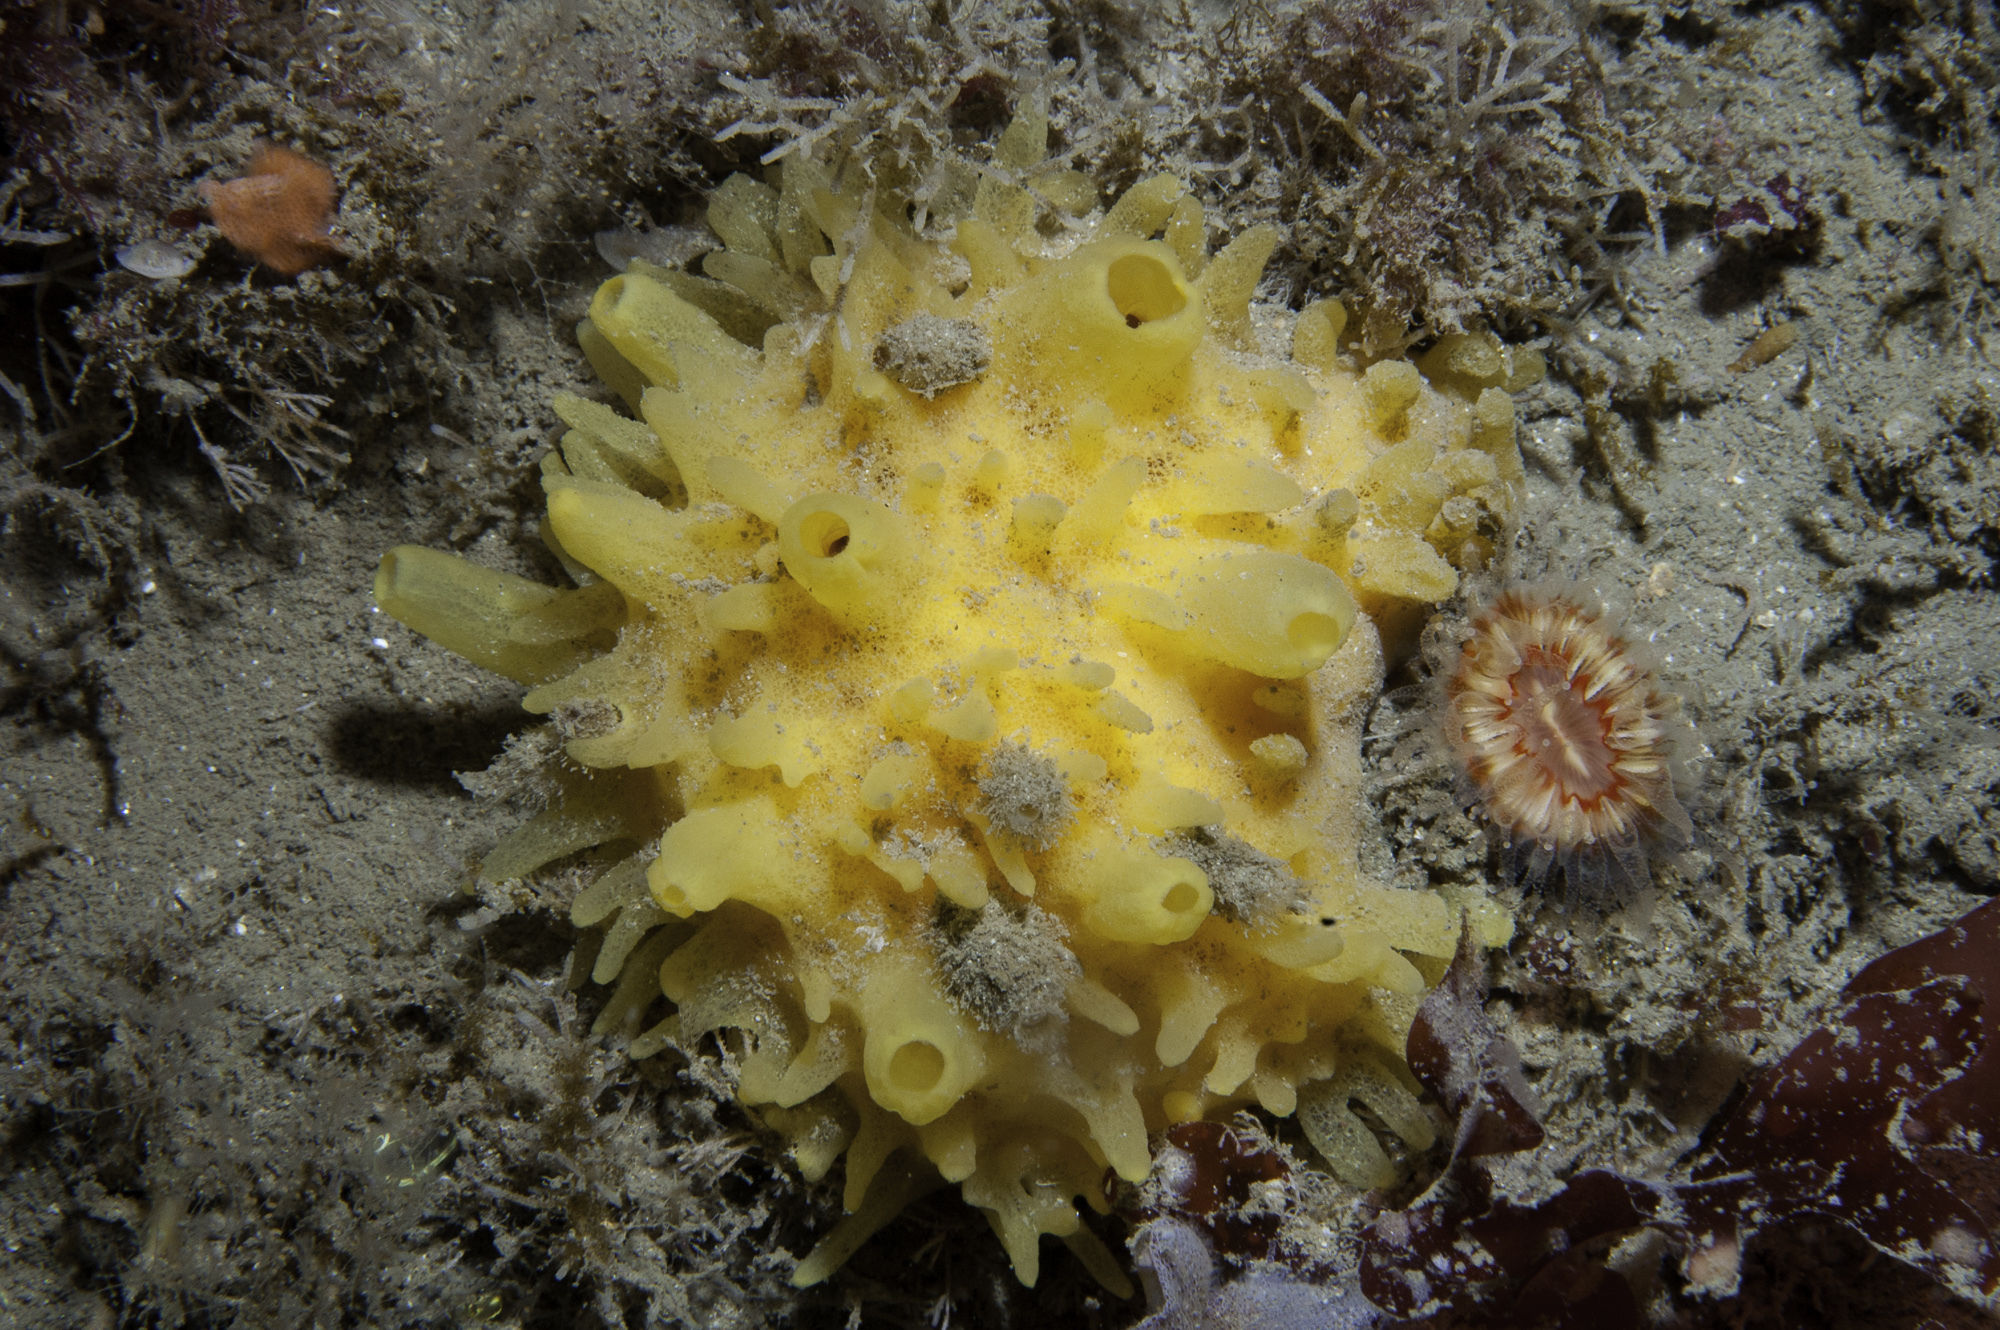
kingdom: Animalia
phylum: Porifera
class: Demospongiae
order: Polymastiida
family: Polymastiidae
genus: Polymastia
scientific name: Polymastia boletiformis
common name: Massive horny sponge
